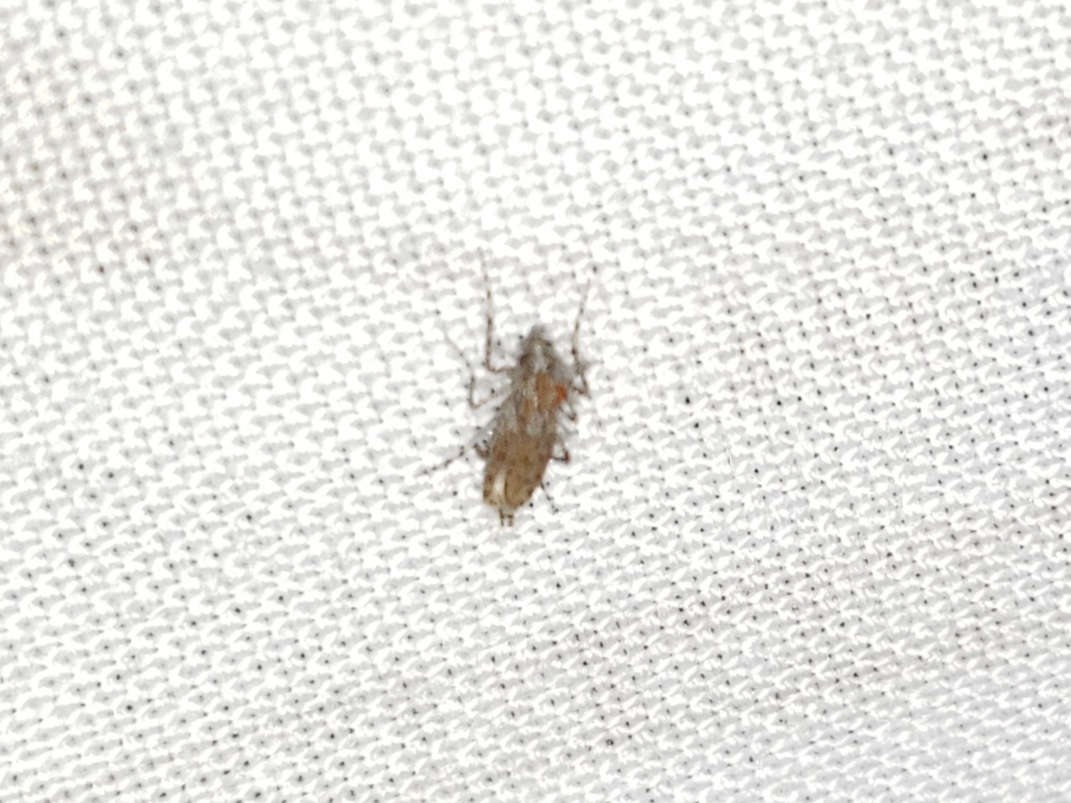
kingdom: Animalia
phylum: Arthropoda
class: Insecta
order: Diptera
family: Chaoboridae
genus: Chaoborus
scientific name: Chaoborus punctipennis
